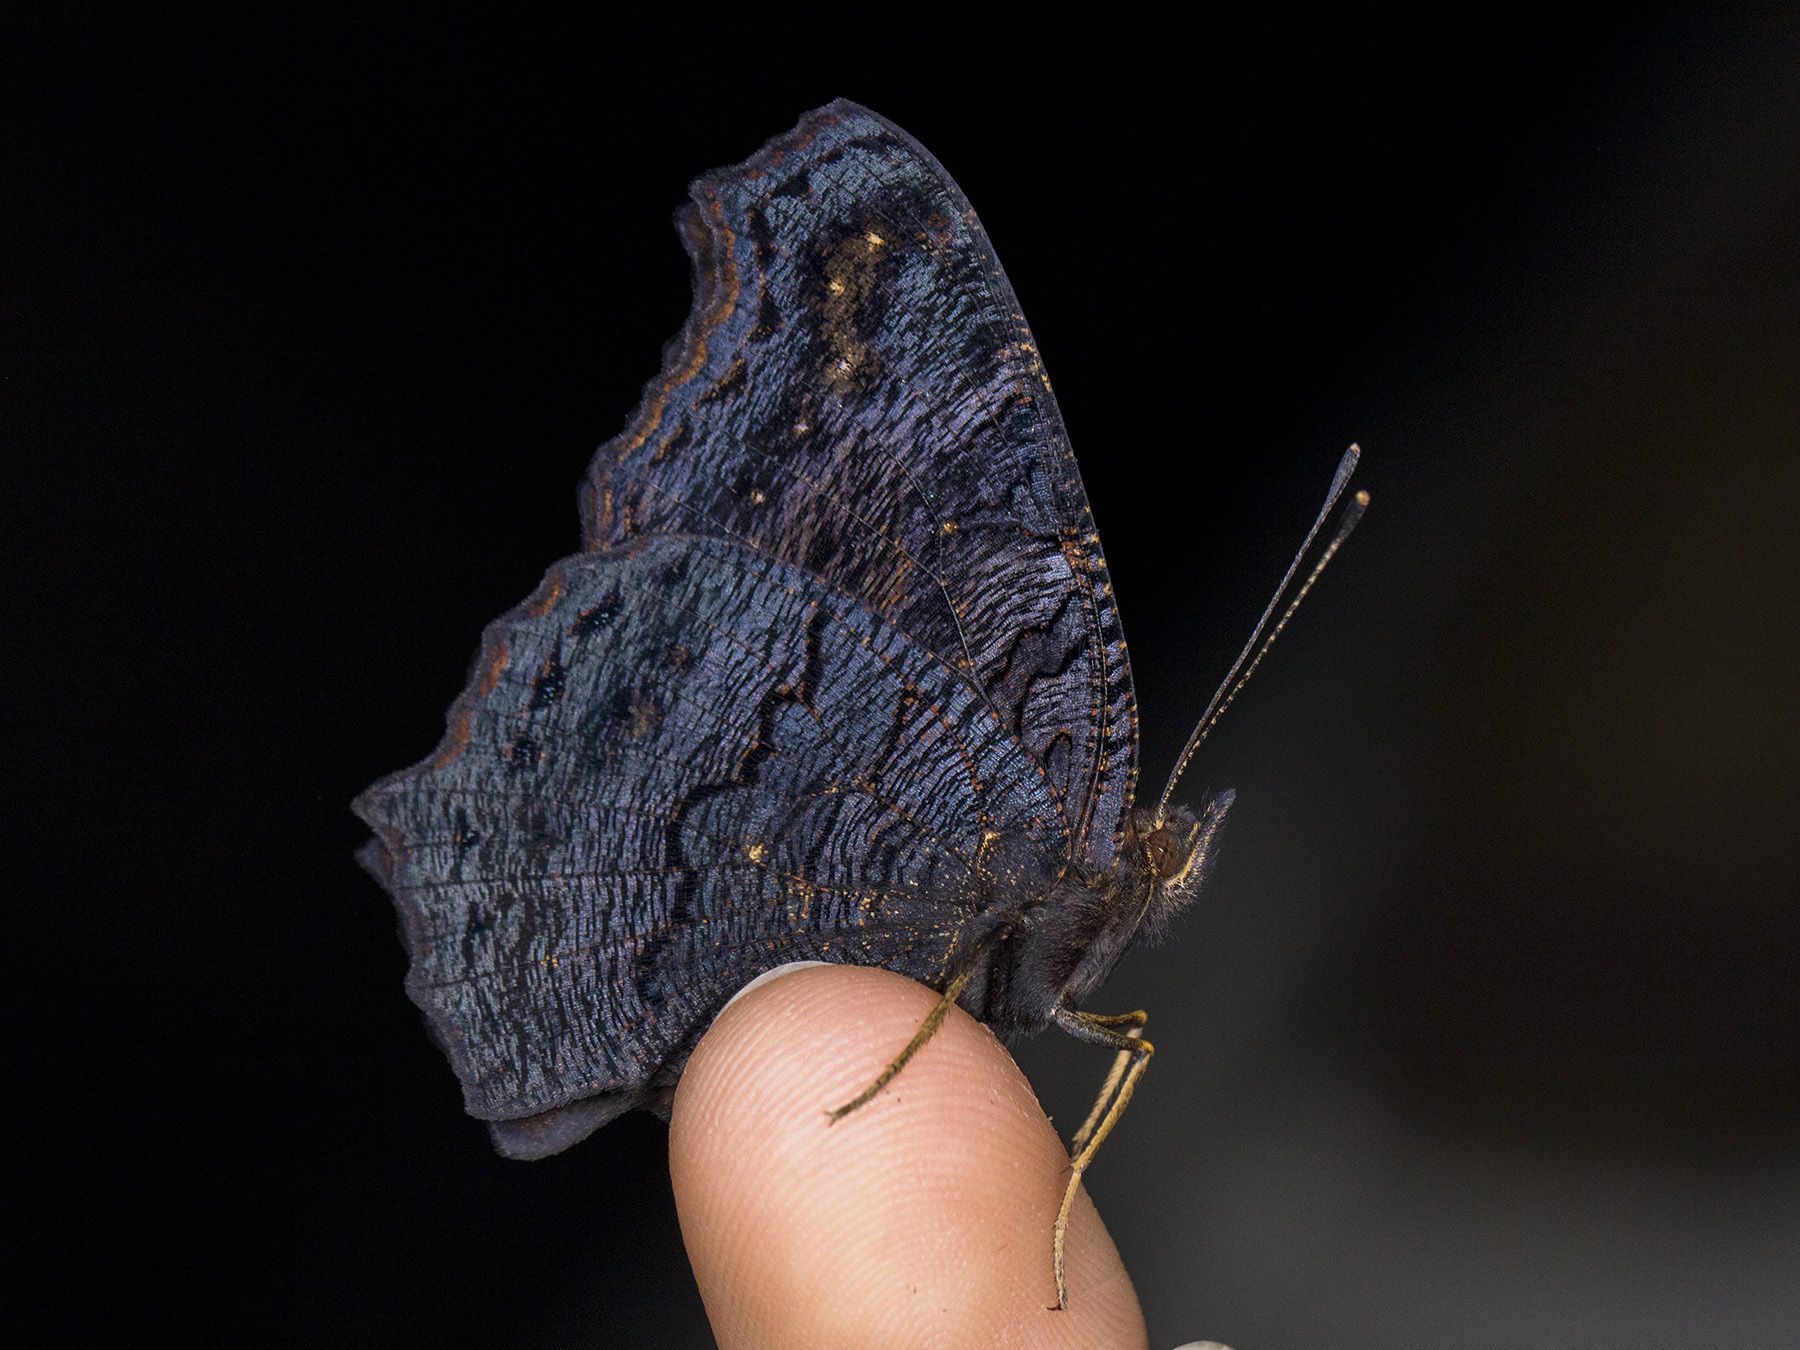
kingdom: Animalia
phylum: Arthropoda
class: Insecta
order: Lepidoptera
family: Nymphalidae
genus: Aglais
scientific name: Aglais io
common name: Peacock
